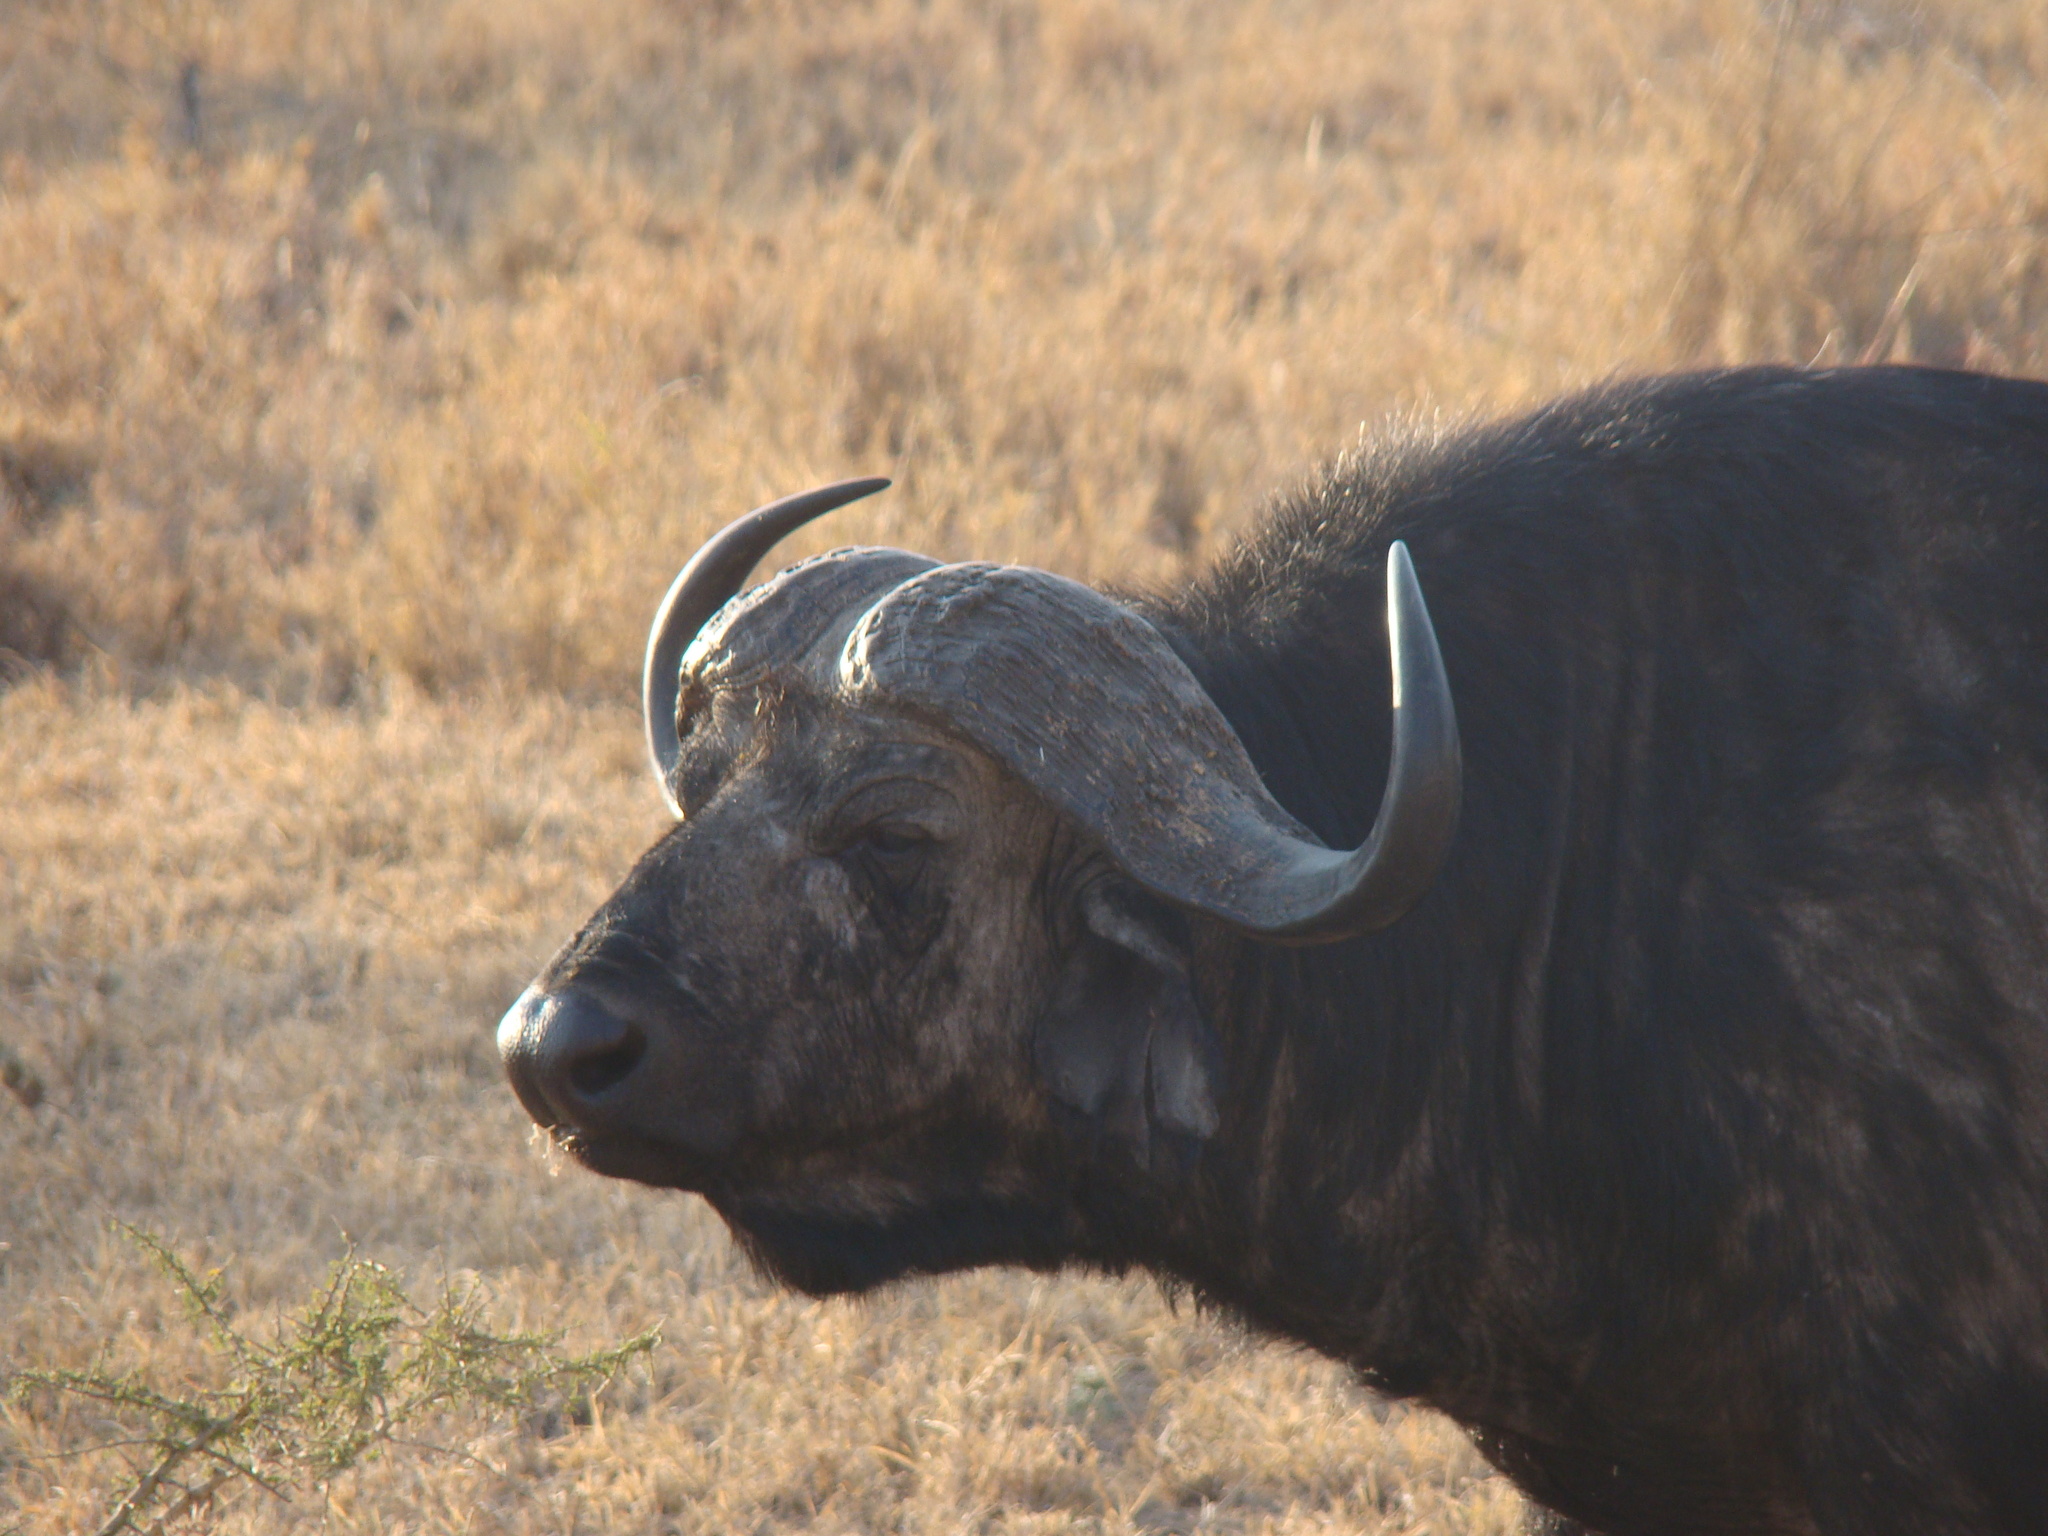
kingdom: Animalia
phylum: Chordata
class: Mammalia
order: Artiodactyla
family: Bovidae
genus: Syncerus
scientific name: Syncerus caffer
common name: African buffalo
